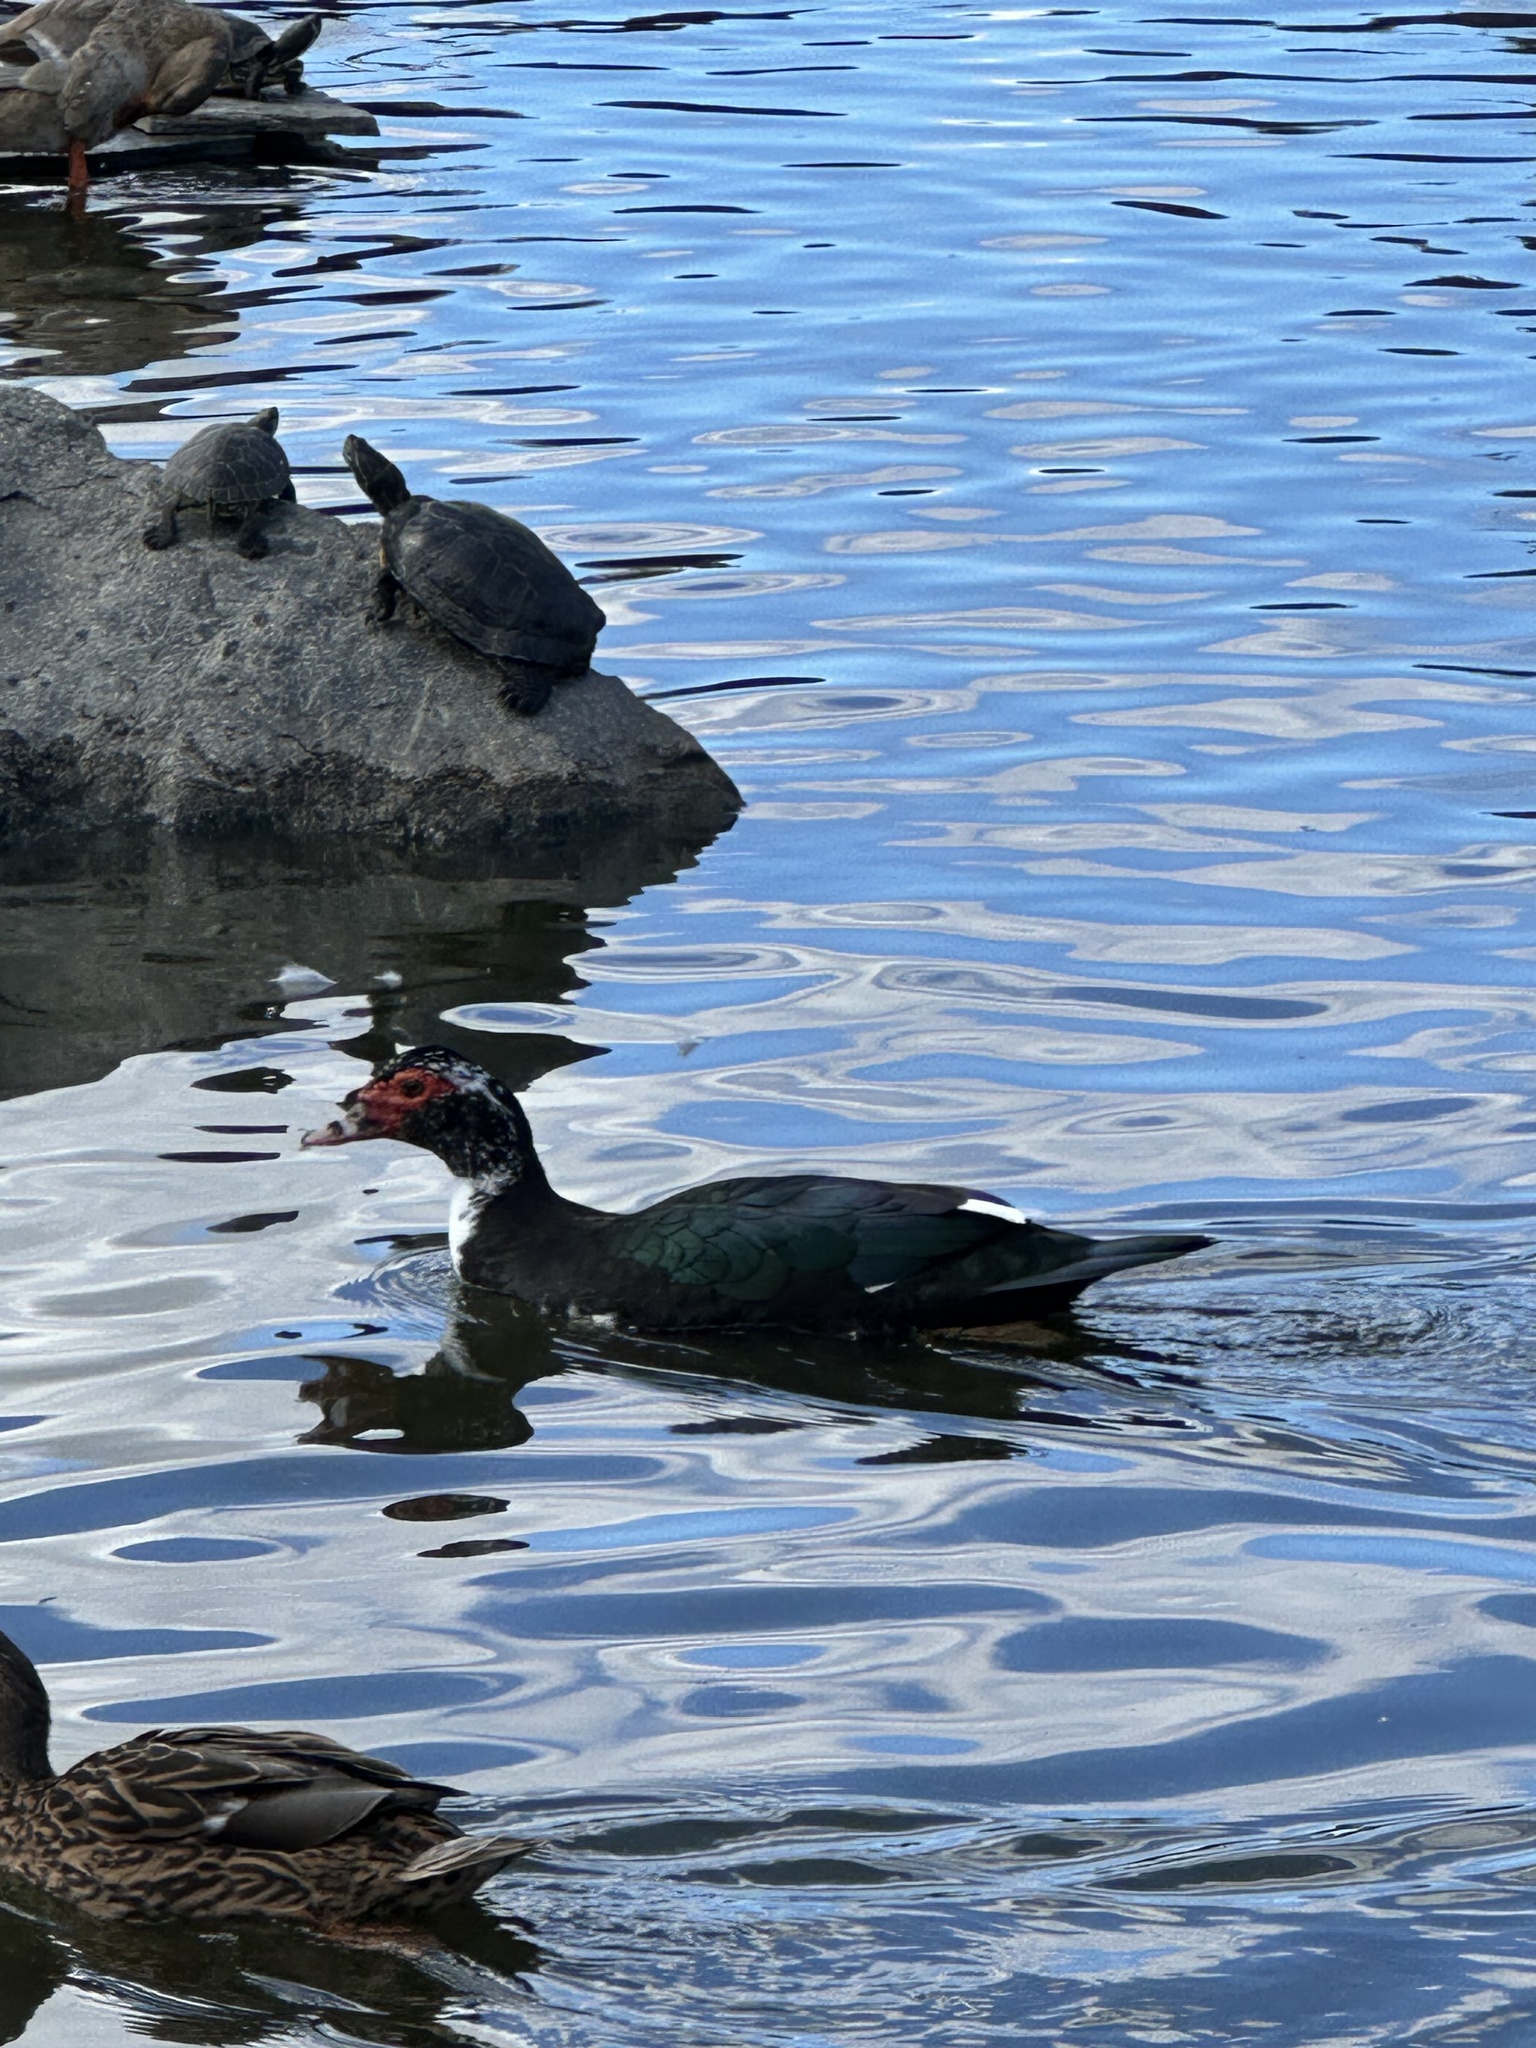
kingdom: Animalia
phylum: Chordata
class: Aves
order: Anseriformes
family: Anatidae
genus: Cairina
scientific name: Cairina moschata
